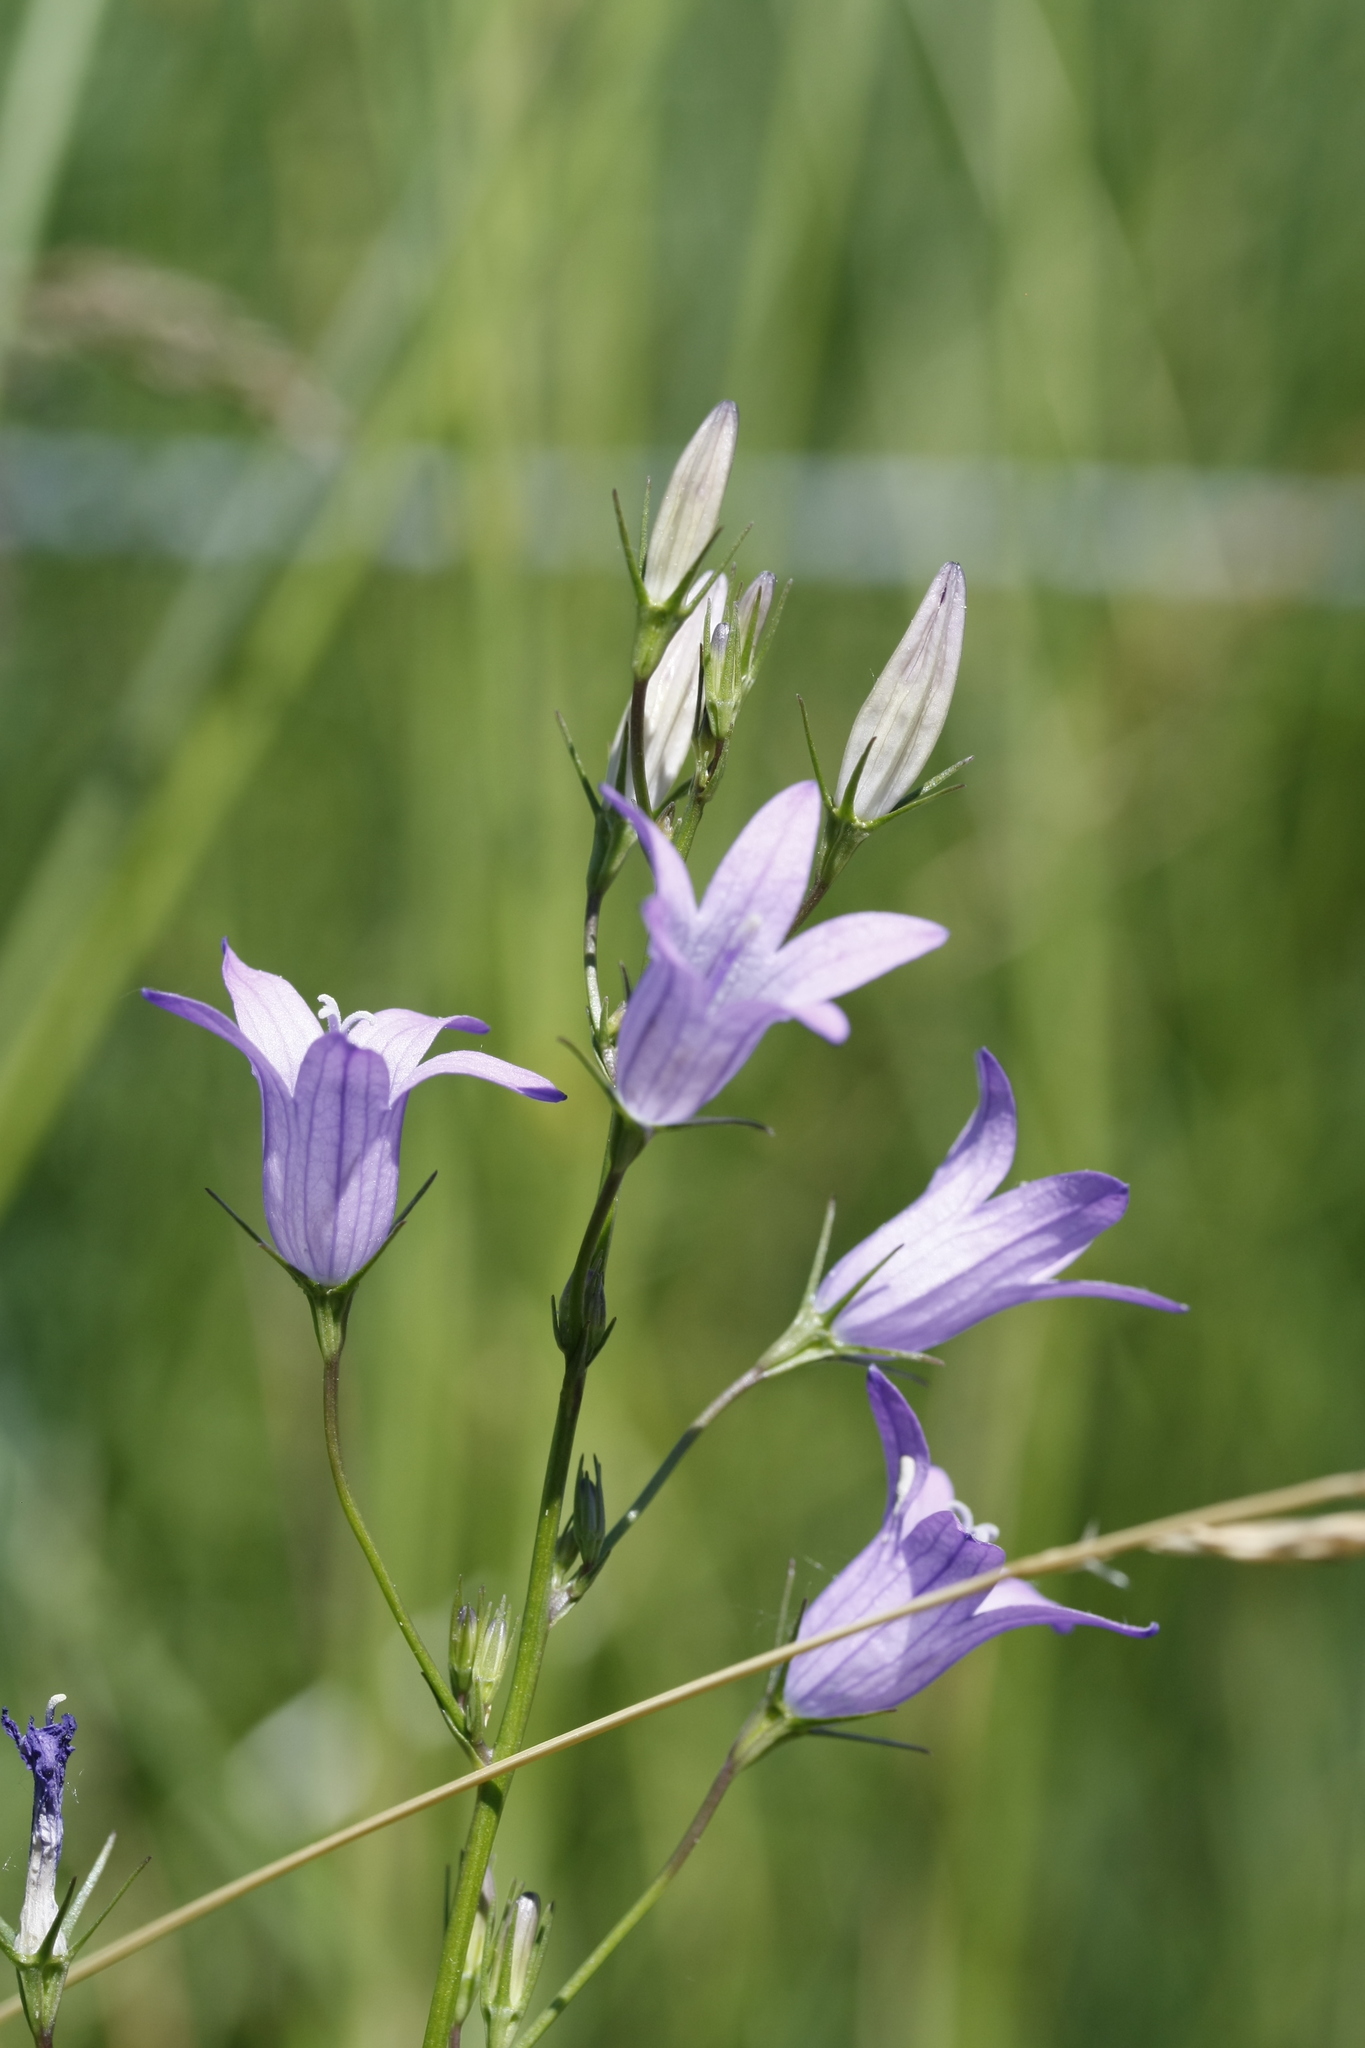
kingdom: Plantae
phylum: Tracheophyta
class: Magnoliopsida
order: Asterales
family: Campanulaceae
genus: Campanula
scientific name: Campanula rapunculus
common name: Rampion bellflower
